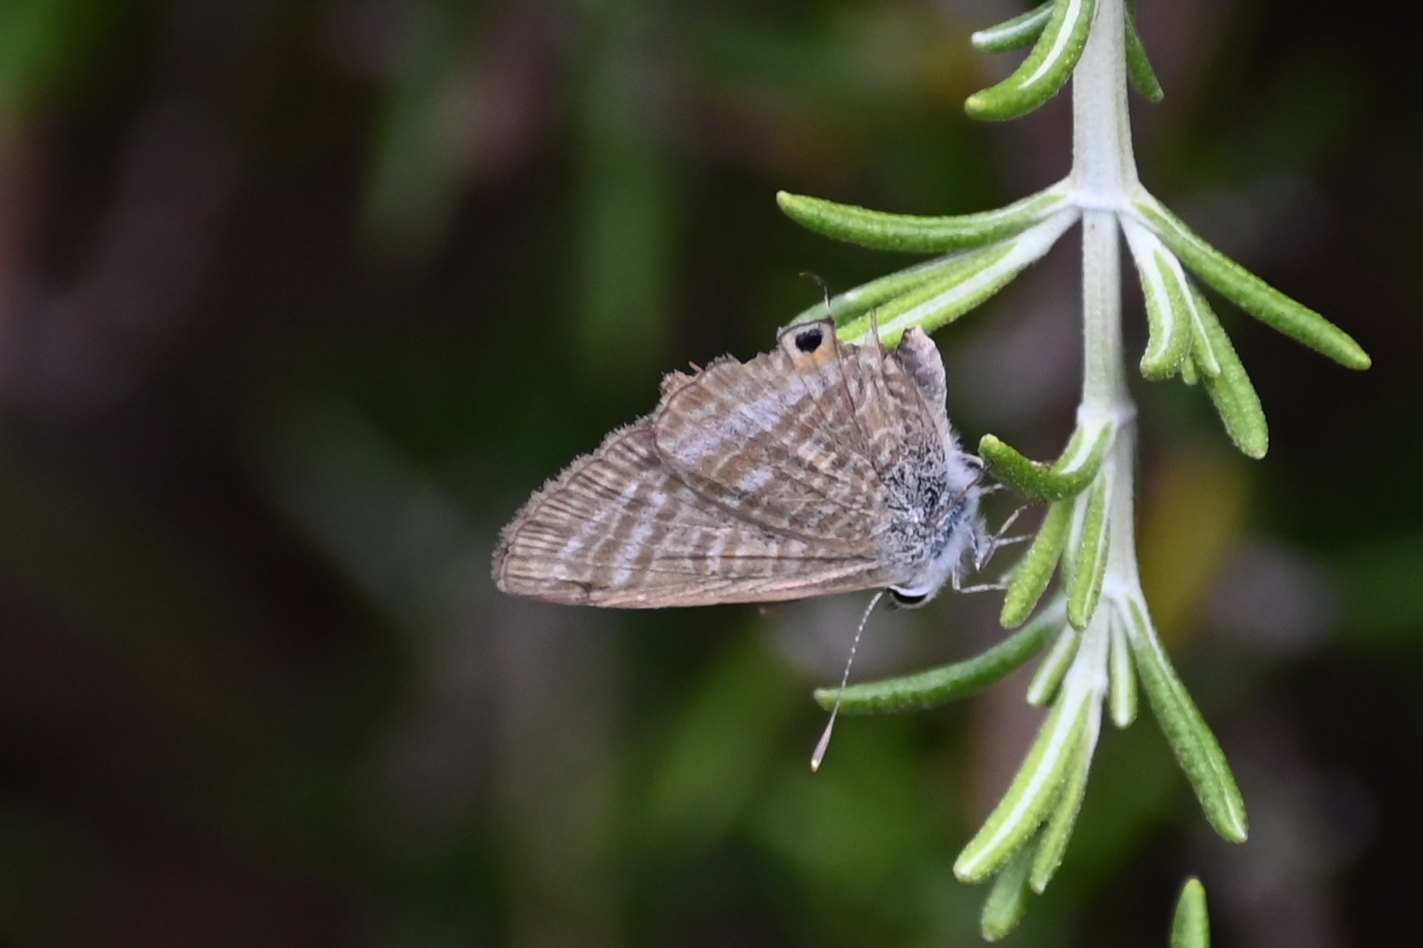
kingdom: Animalia
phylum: Arthropoda
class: Insecta
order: Lepidoptera
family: Lycaenidae
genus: Lampides
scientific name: Lampides boeticus
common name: Long-tailed blue
